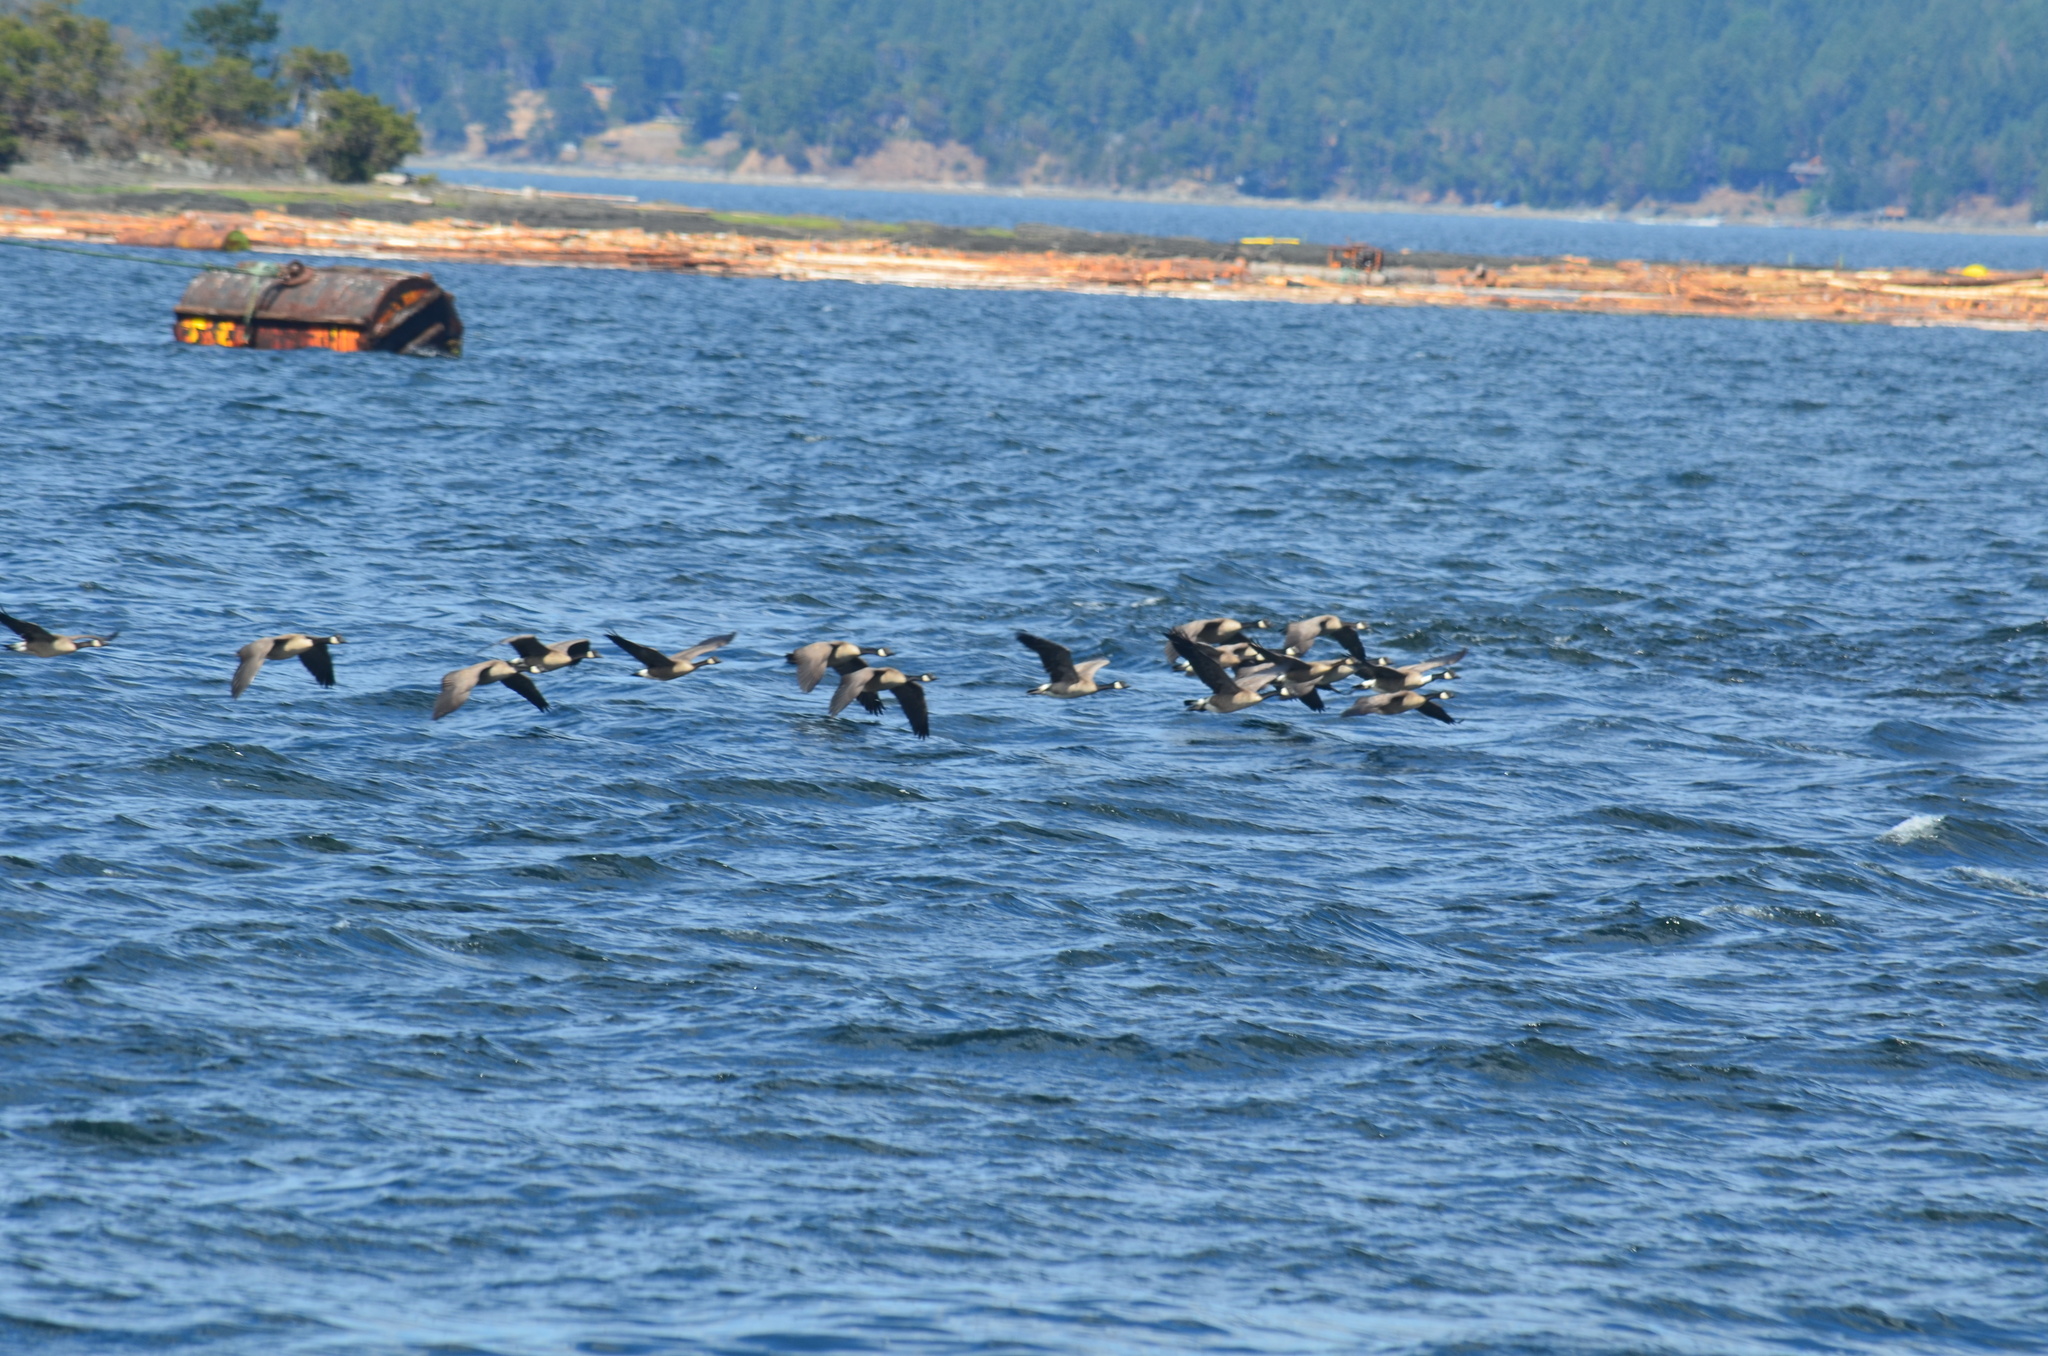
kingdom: Animalia
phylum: Chordata
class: Aves
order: Anseriformes
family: Anatidae
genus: Branta
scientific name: Branta canadensis
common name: Canada goose
